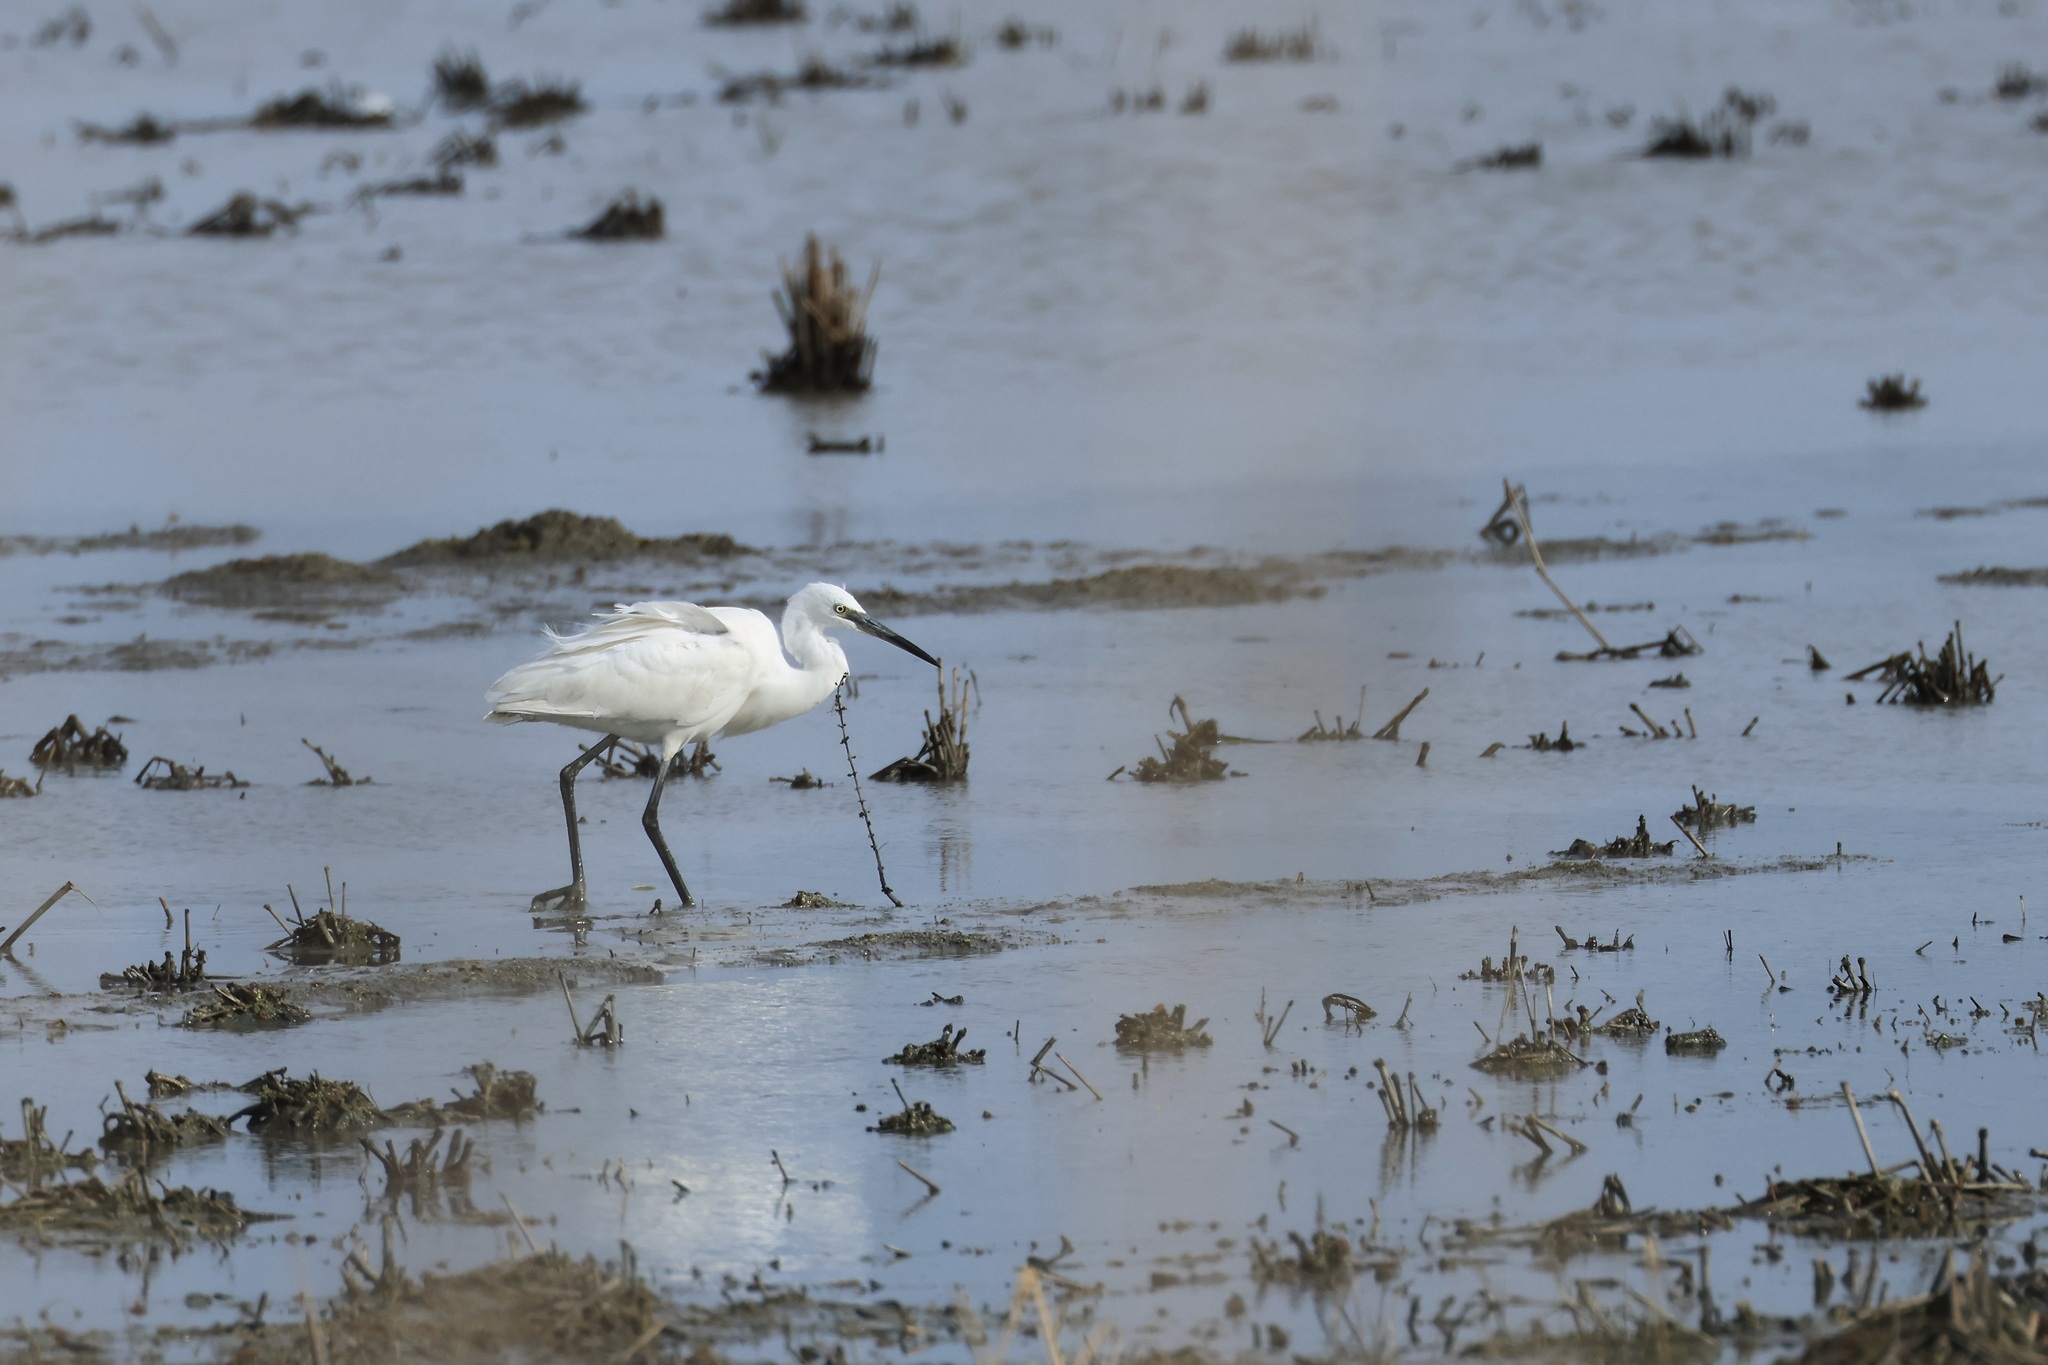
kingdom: Animalia
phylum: Chordata
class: Aves
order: Pelecaniformes
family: Ardeidae
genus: Egretta
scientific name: Egretta garzetta
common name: Little egret
